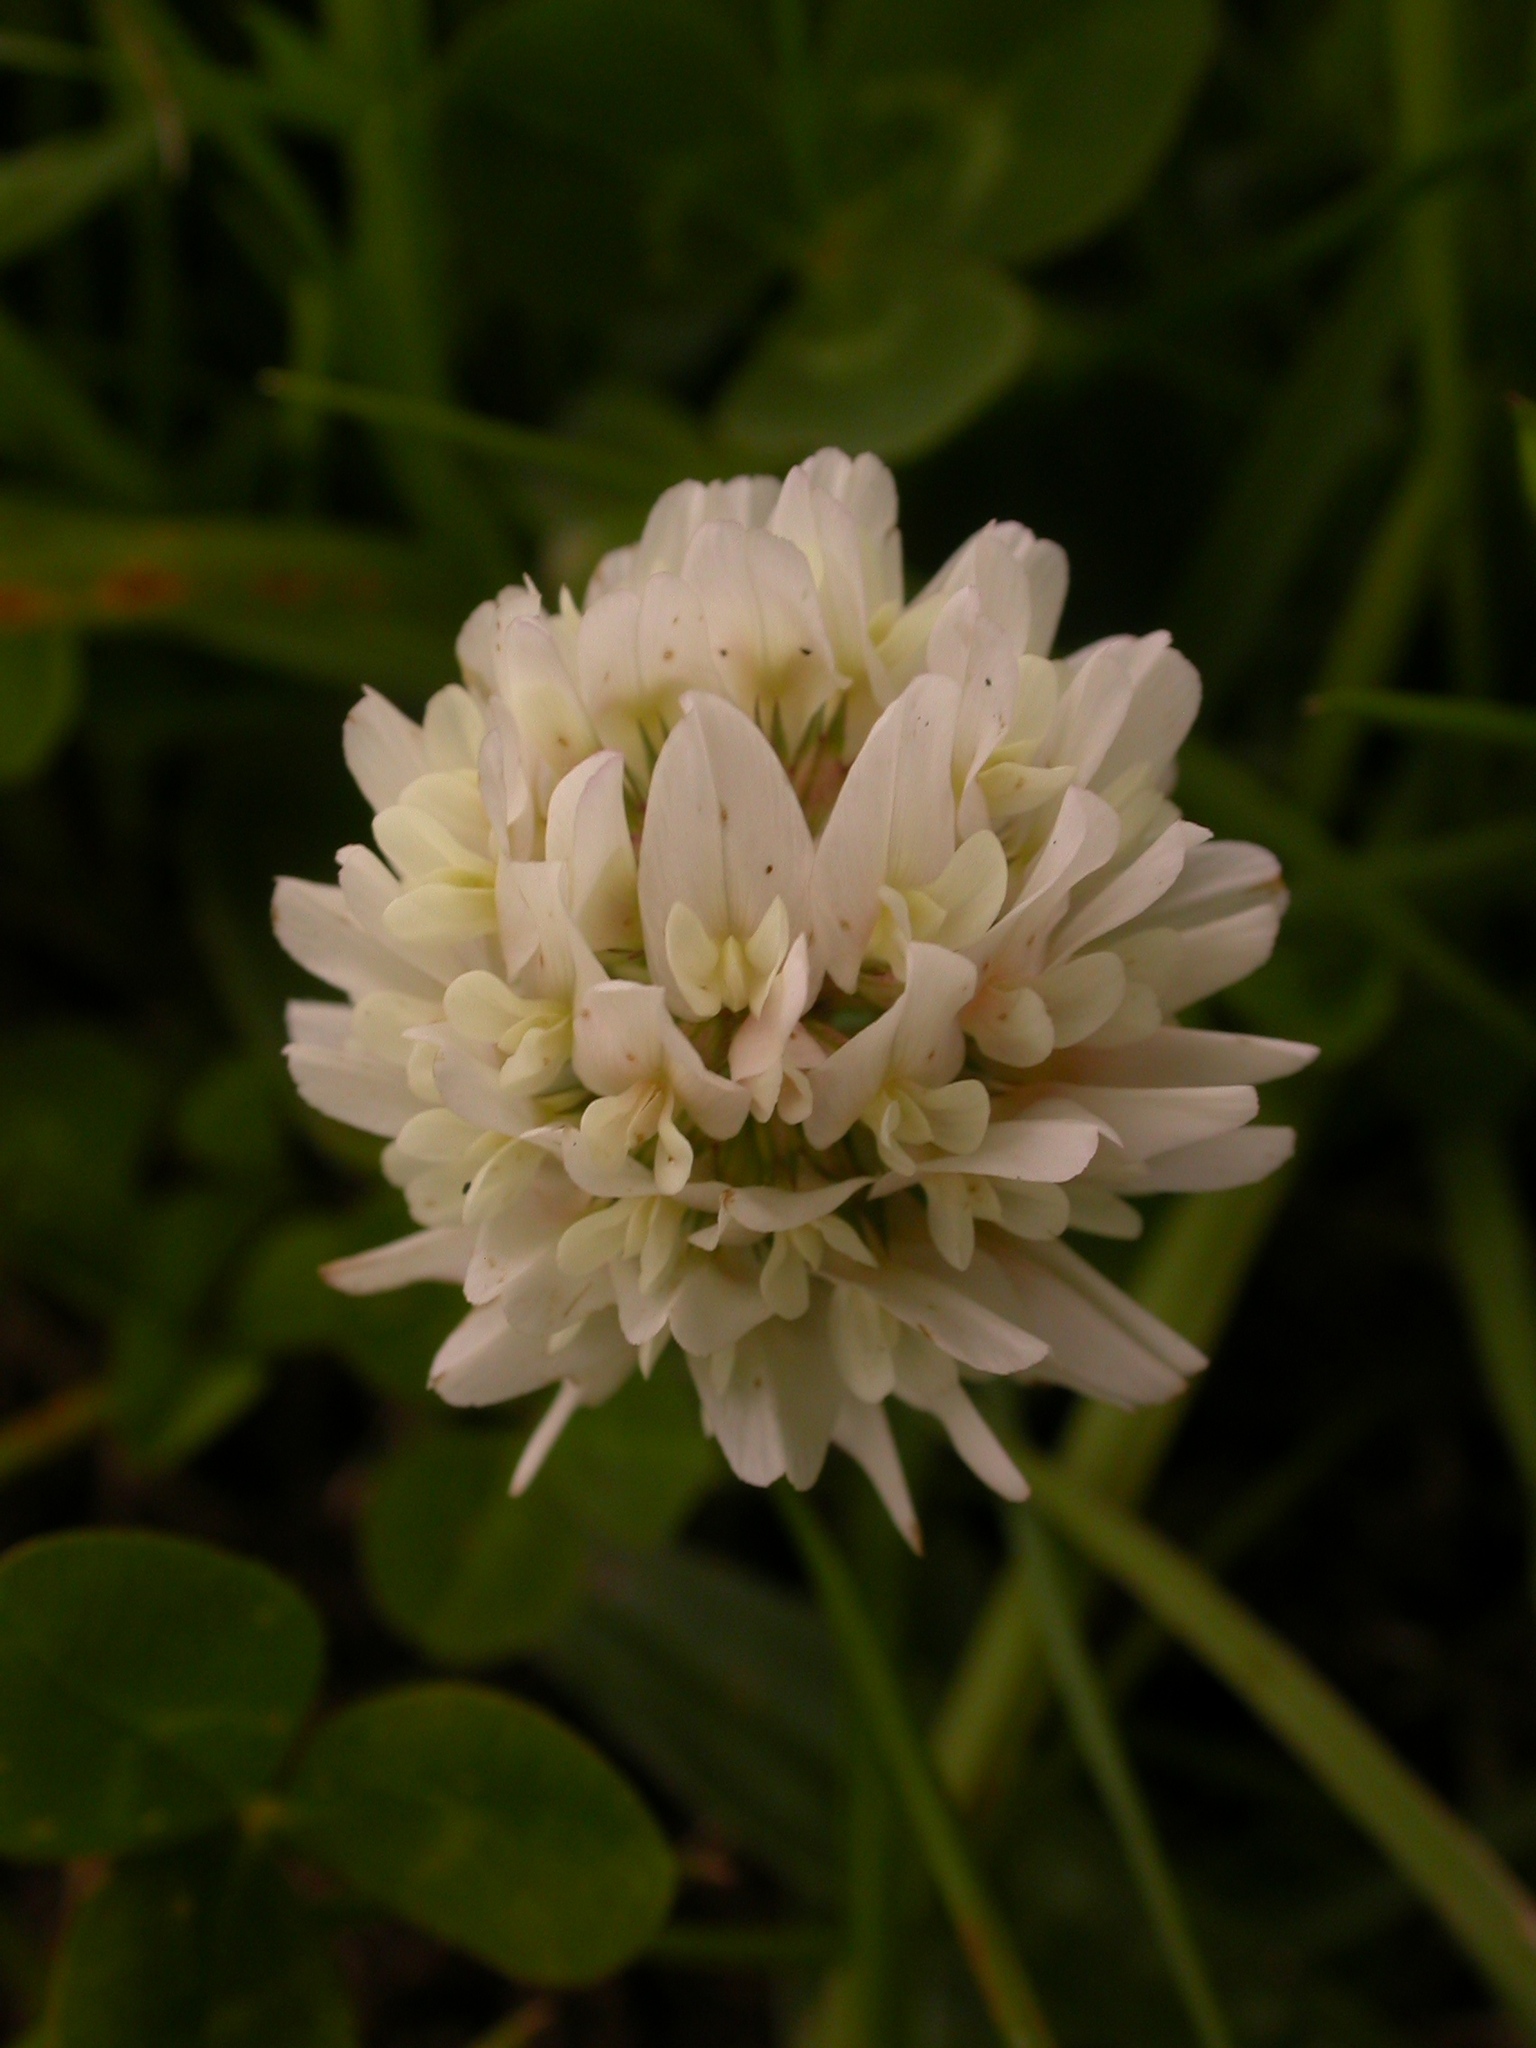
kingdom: Plantae
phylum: Tracheophyta
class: Magnoliopsida
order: Fabales
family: Fabaceae
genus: Trifolium
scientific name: Trifolium repens
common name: White clover
